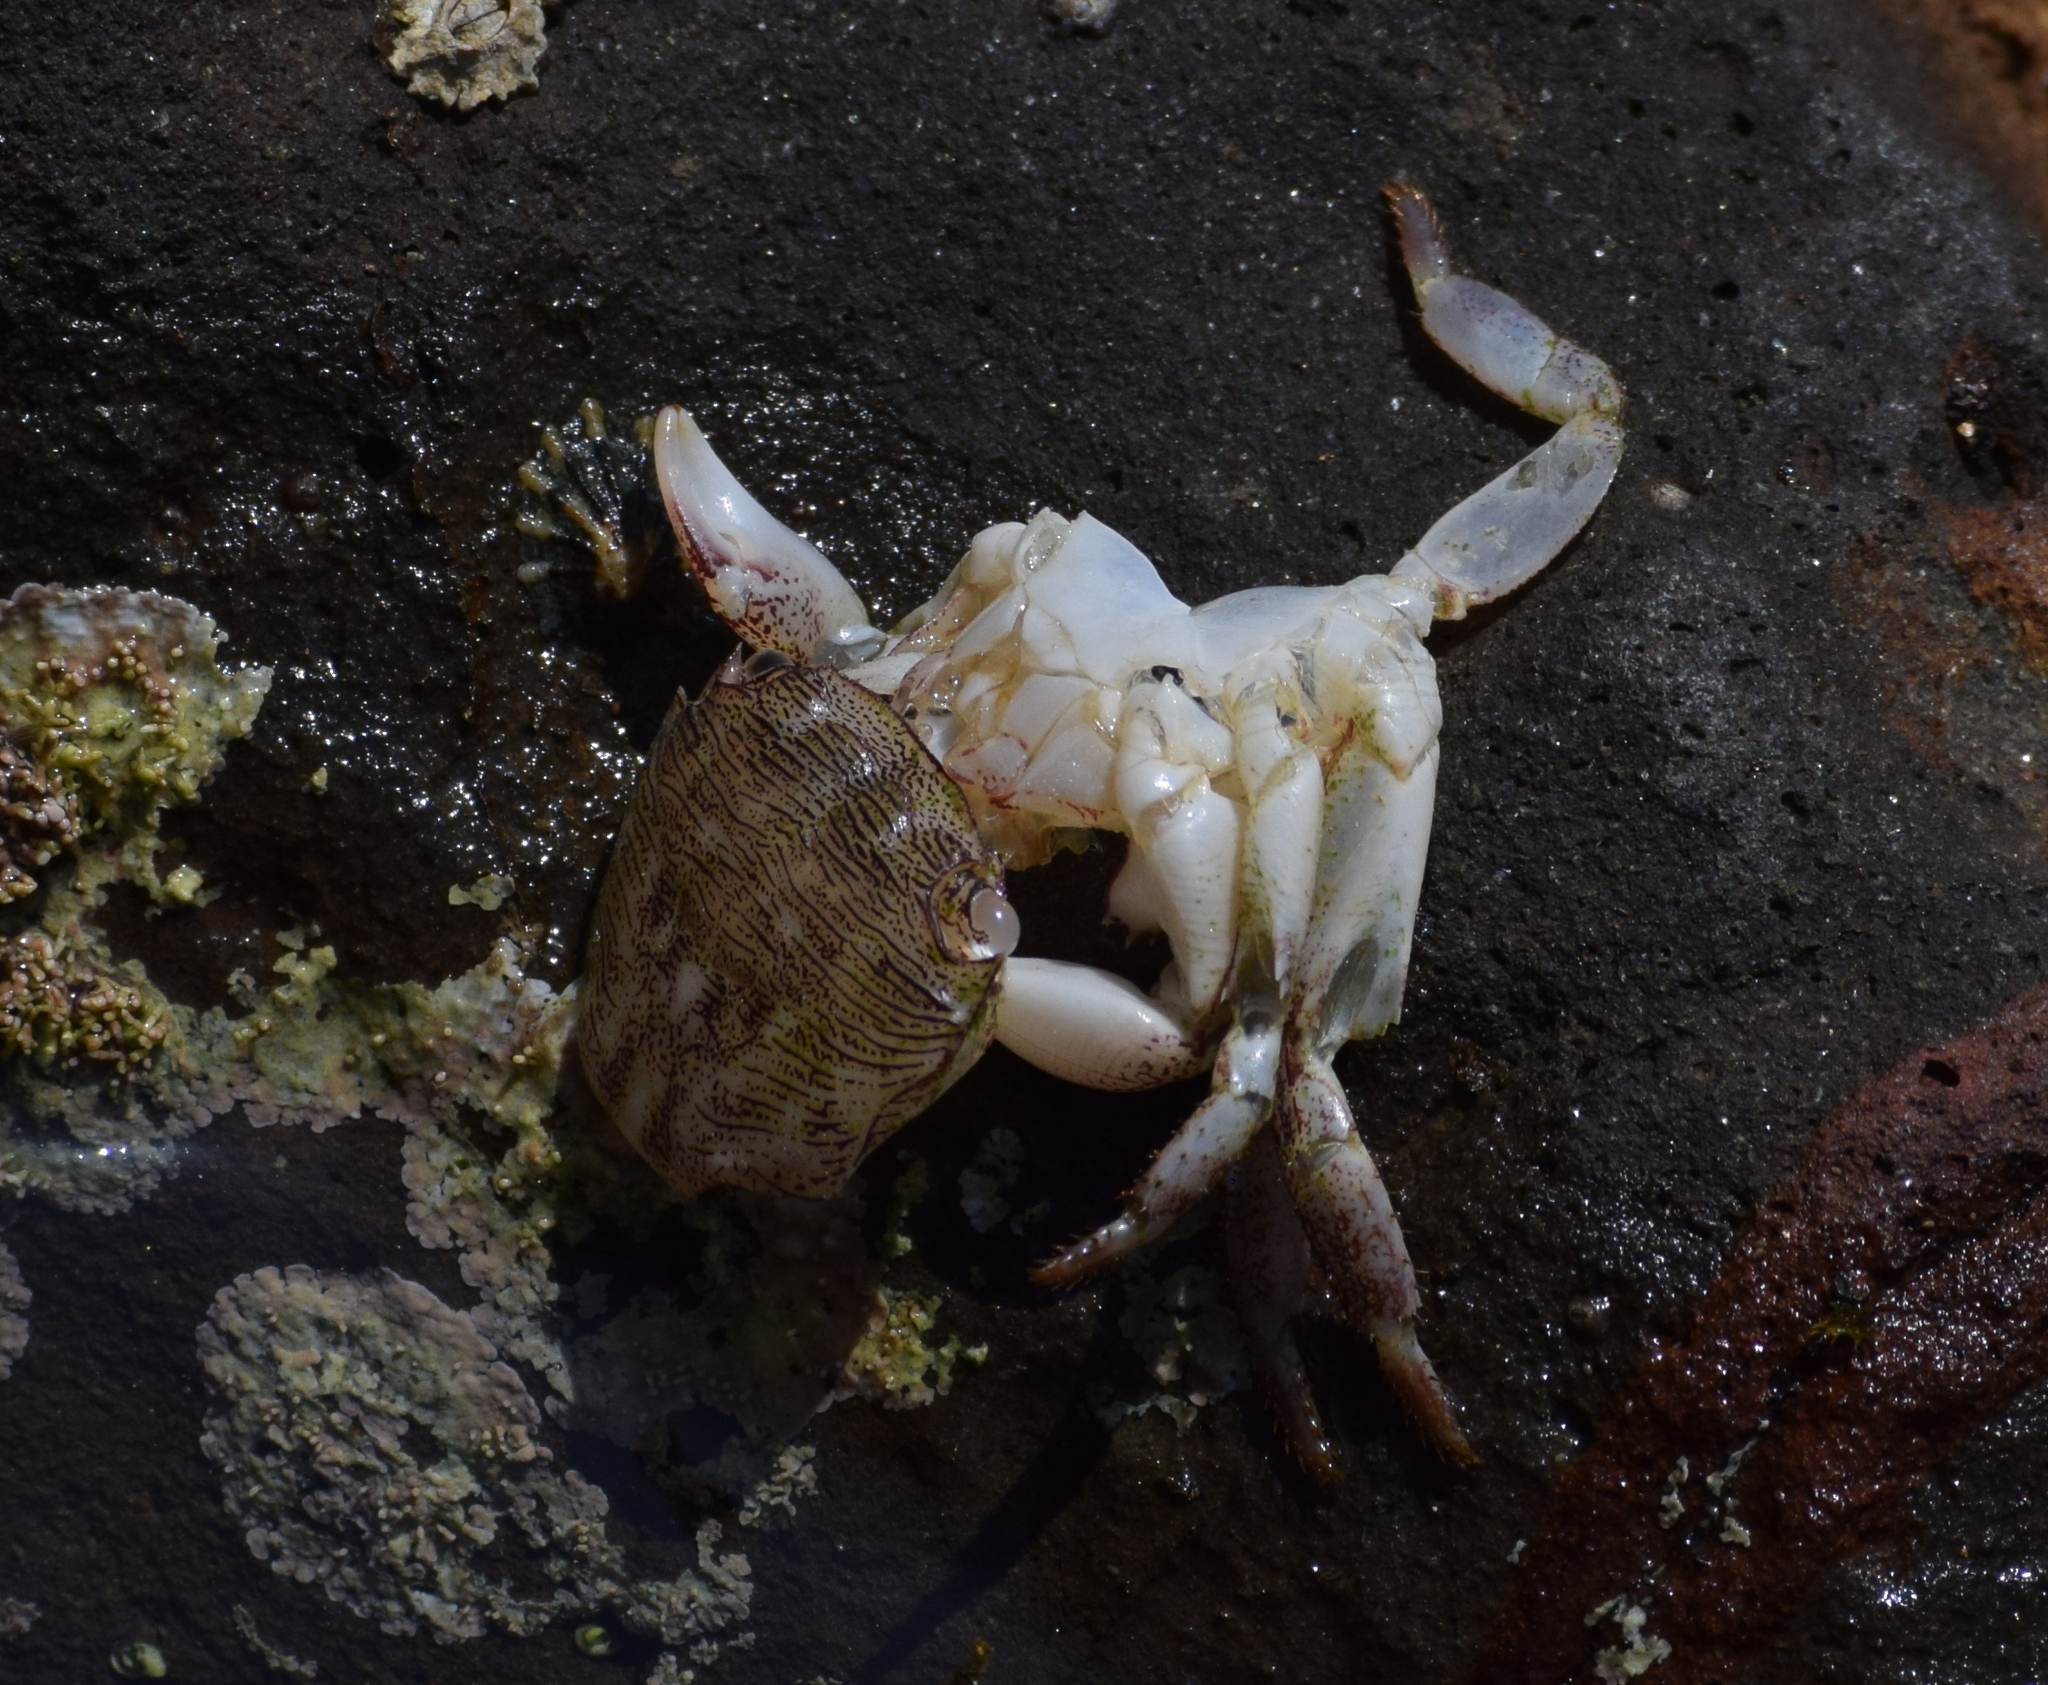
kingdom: Animalia
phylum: Arthropoda
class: Malacostraca
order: Decapoda
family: Grapsidae
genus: Pachygrapsus
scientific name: Pachygrapsus crassipes
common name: Striped shore crab
